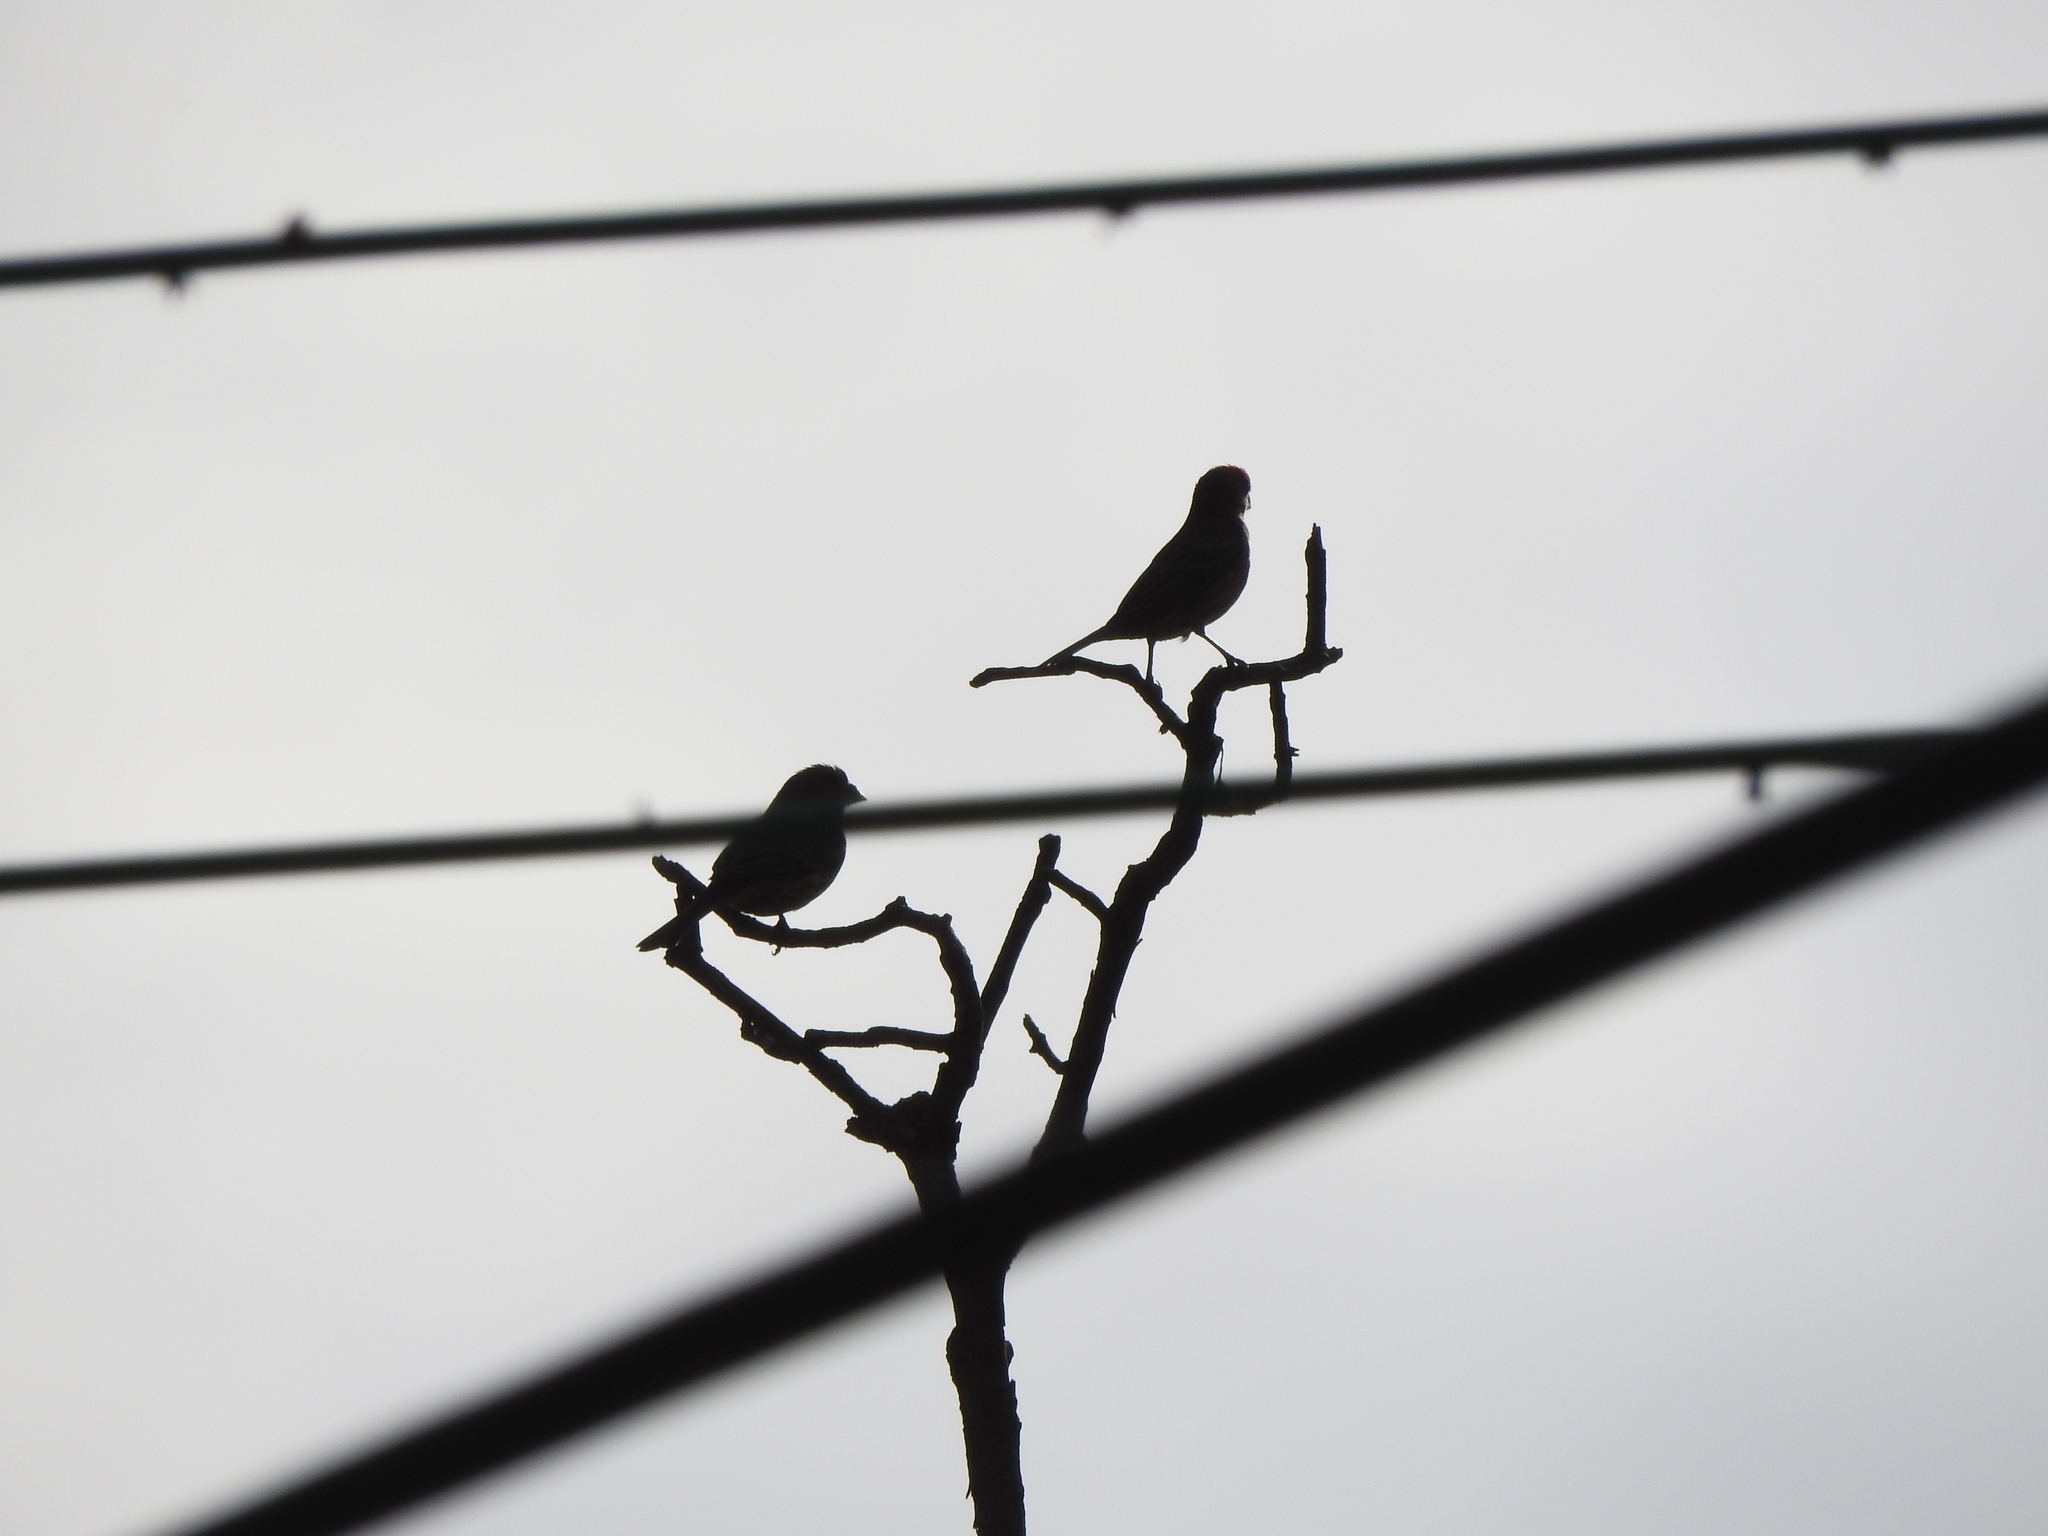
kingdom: Animalia
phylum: Chordata
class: Aves
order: Passeriformes
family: Fringillidae
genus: Haemorhous
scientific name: Haemorhous mexicanus
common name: House finch
